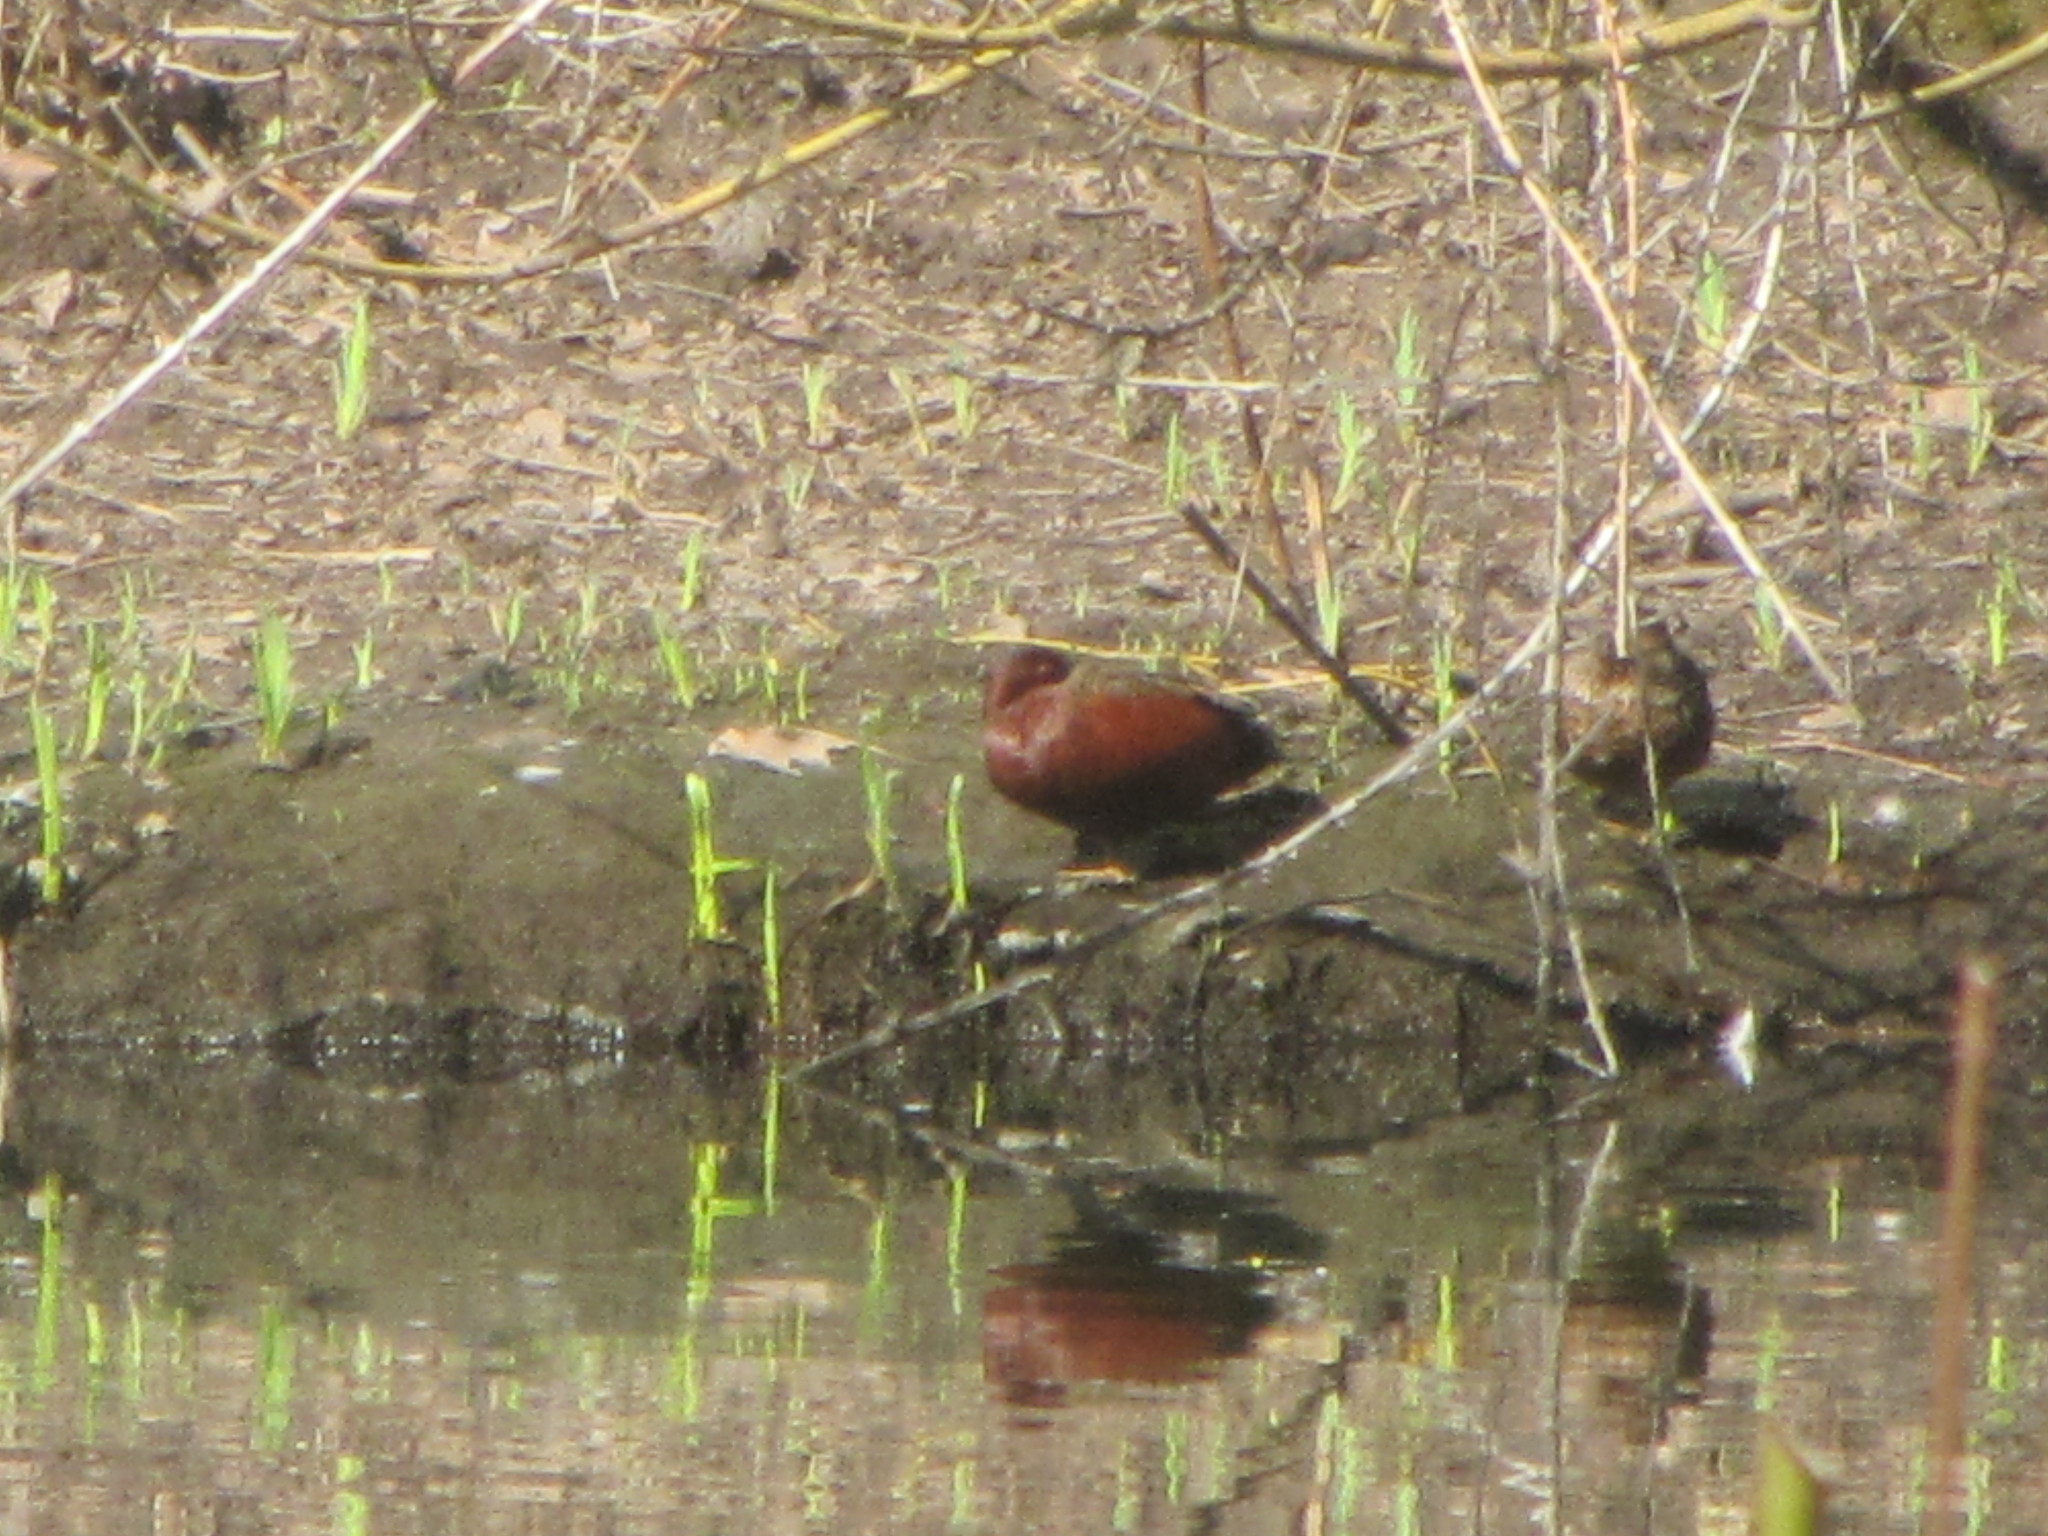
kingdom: Animalia
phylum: Chordata
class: Aves
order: Anseriformes
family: Anatidae
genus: Spatula
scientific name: Spatula cyanoptera
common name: Cinnamon teal
